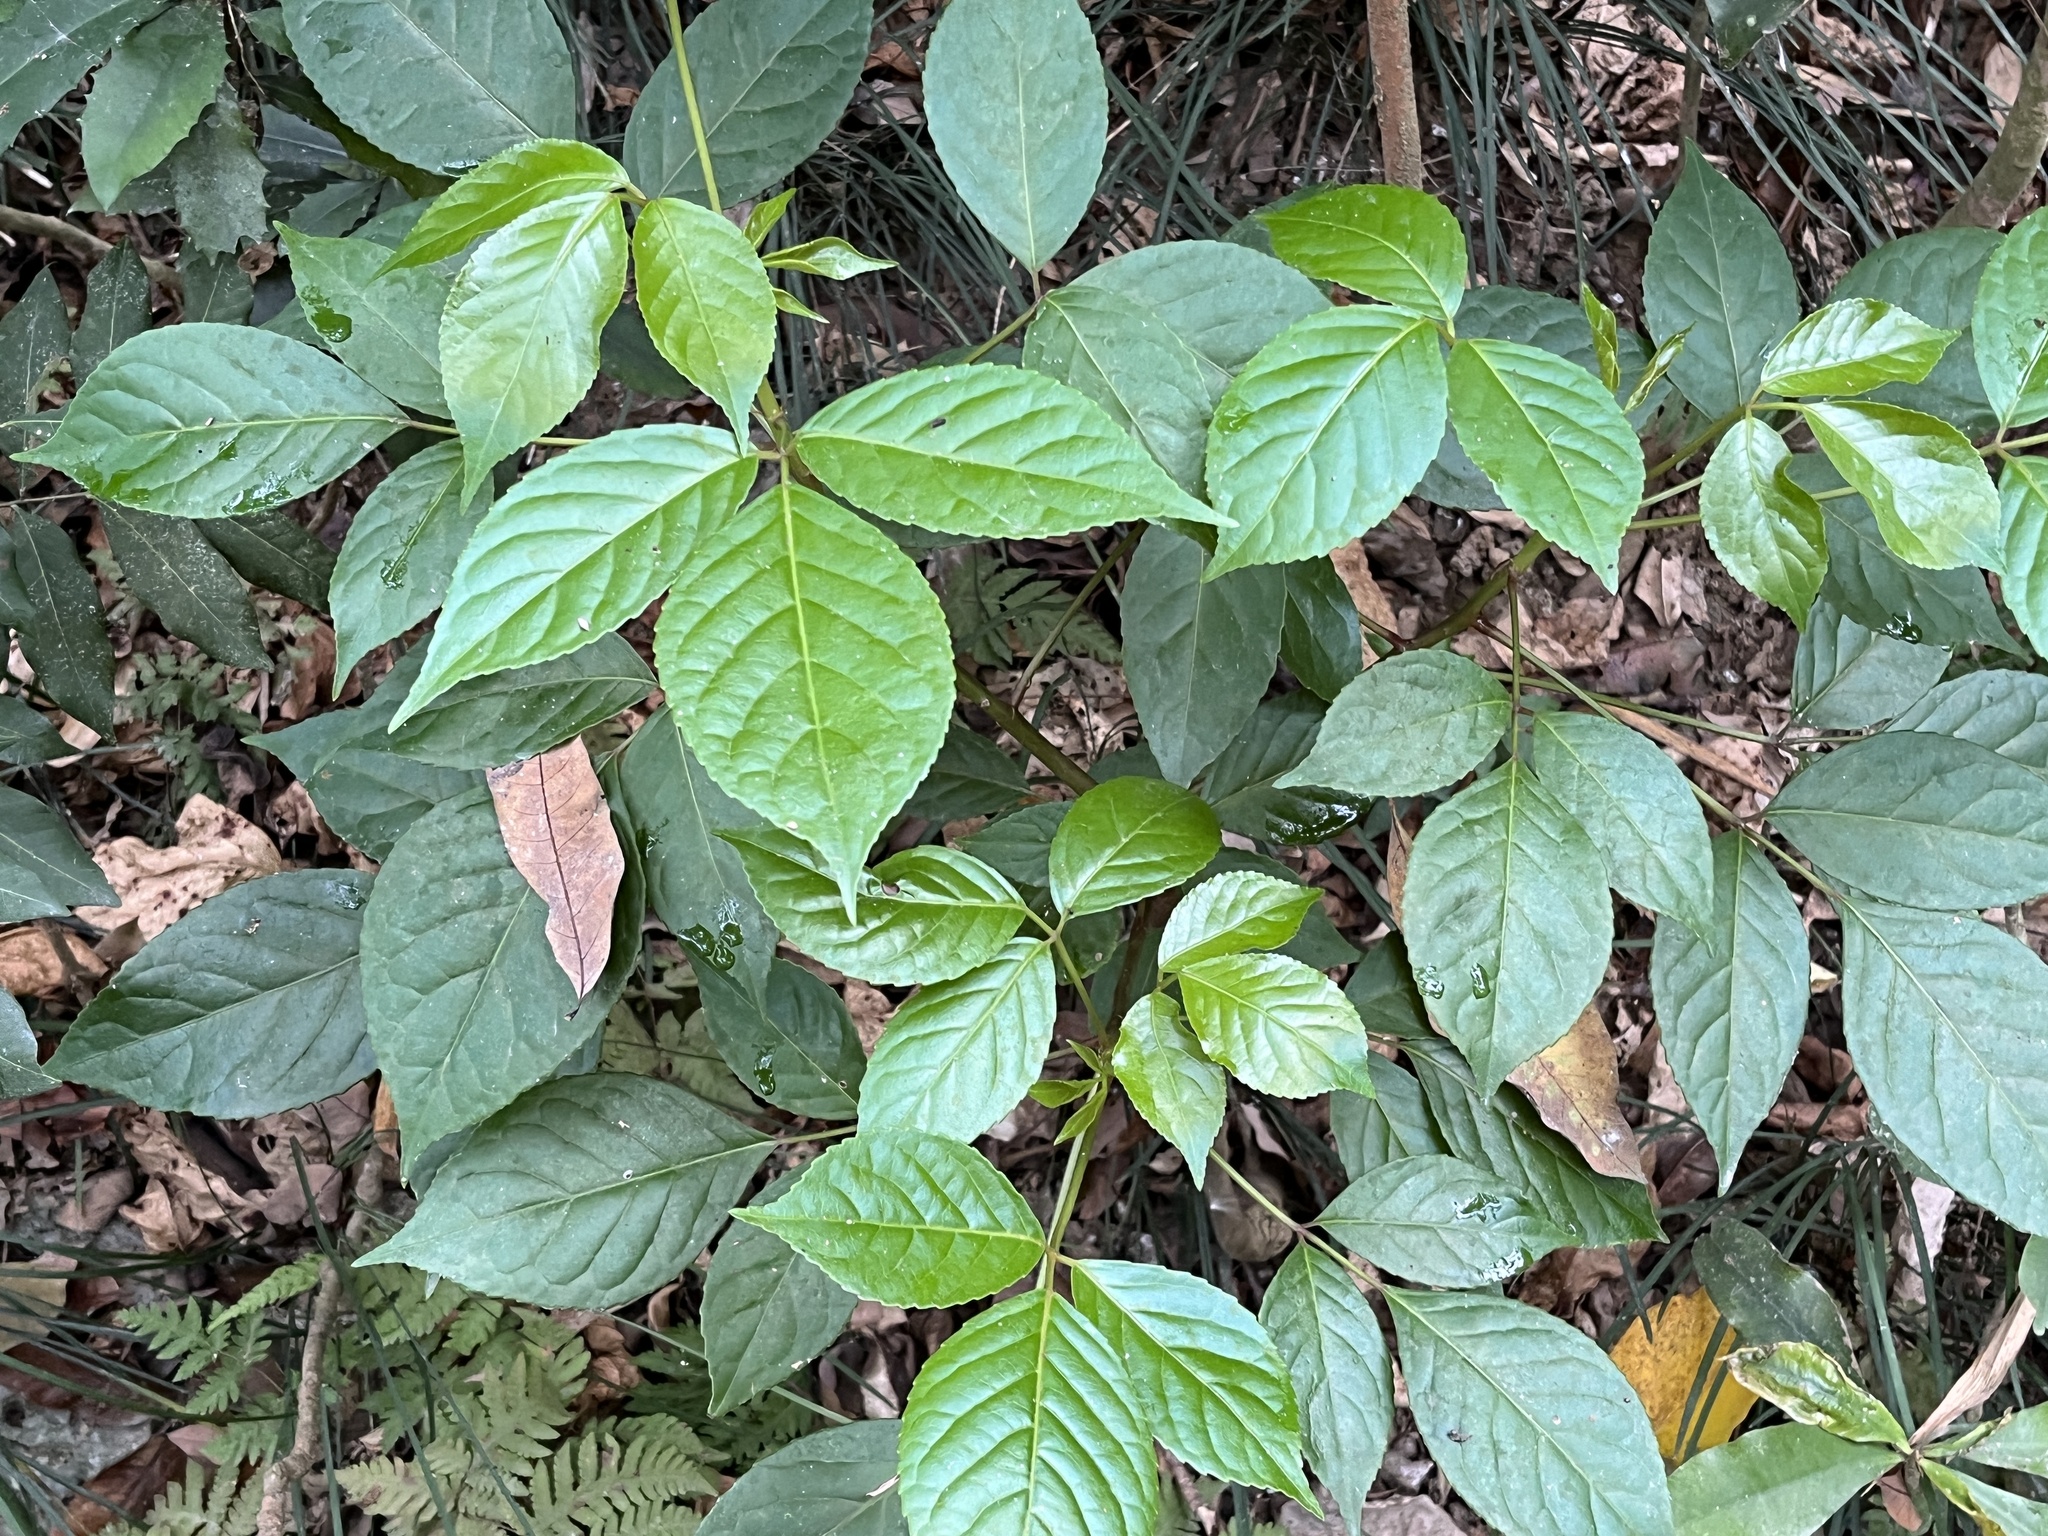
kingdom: Plantae
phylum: Tracheophyta
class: Magnoliopsida
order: Malpighiales
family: Phyllanthaceae
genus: Bischofia
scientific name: Bischofia javanica
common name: Javanese bishopwood
